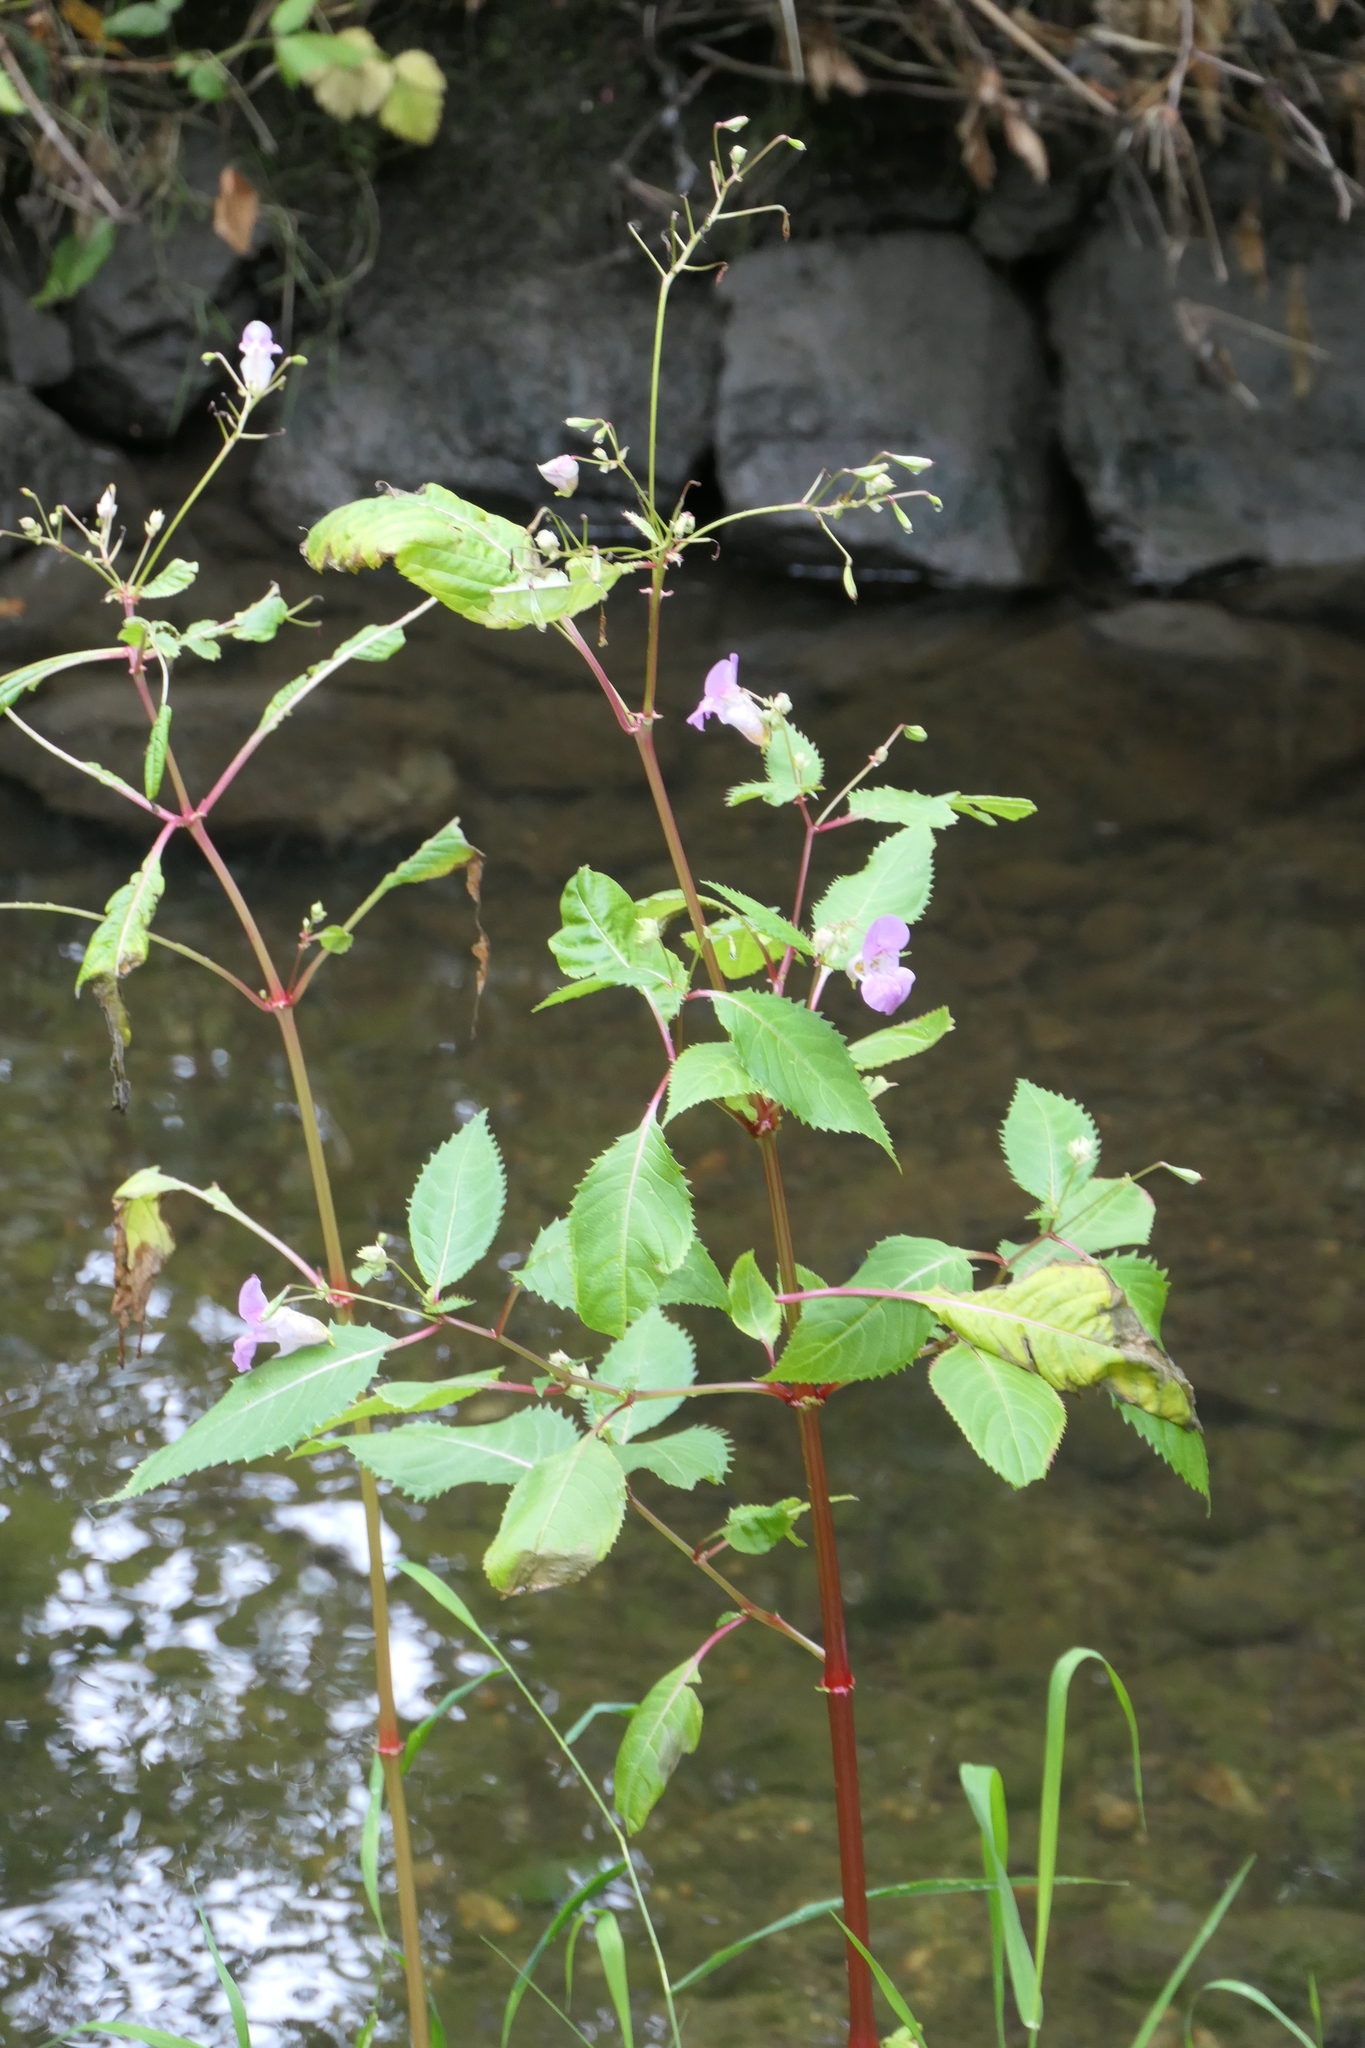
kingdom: Plantae
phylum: Tracheophyta
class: Magnoliopsida
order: Ericales
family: Balsaminaceae
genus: Impatiens
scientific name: Impatiens glandulifera
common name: Himalayan balsam
